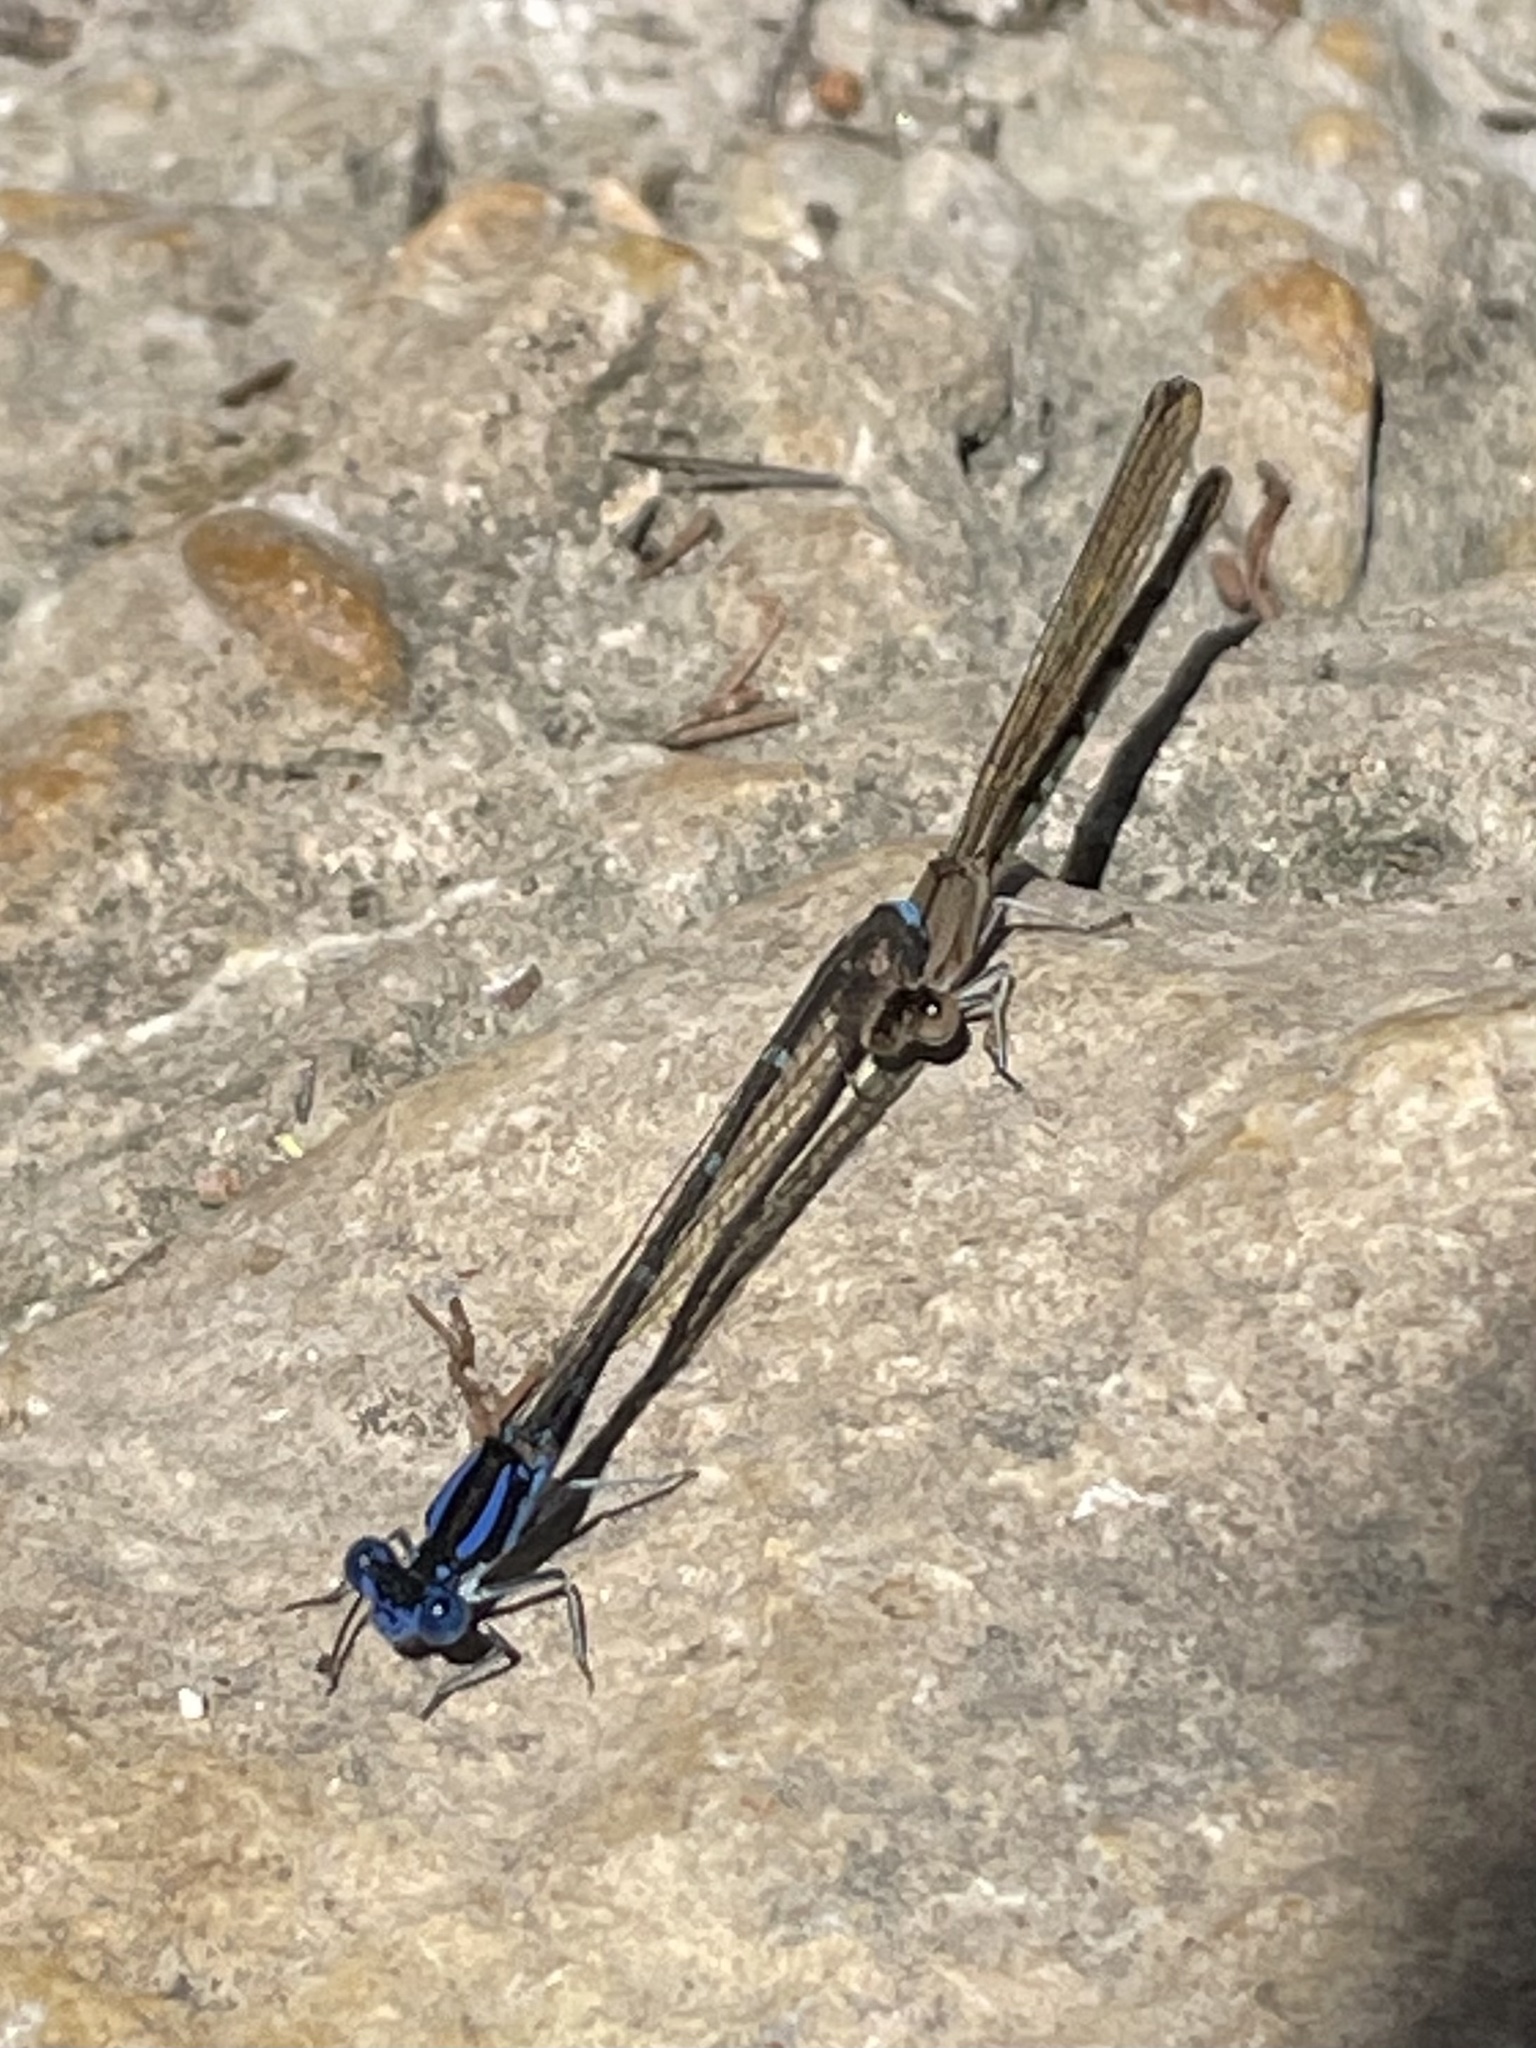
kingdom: Animalia
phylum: Arthropoda
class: Insecta
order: Odonata
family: Coenagrionidae
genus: Argia
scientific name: Argia sedula
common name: Blue-ringed dancer
